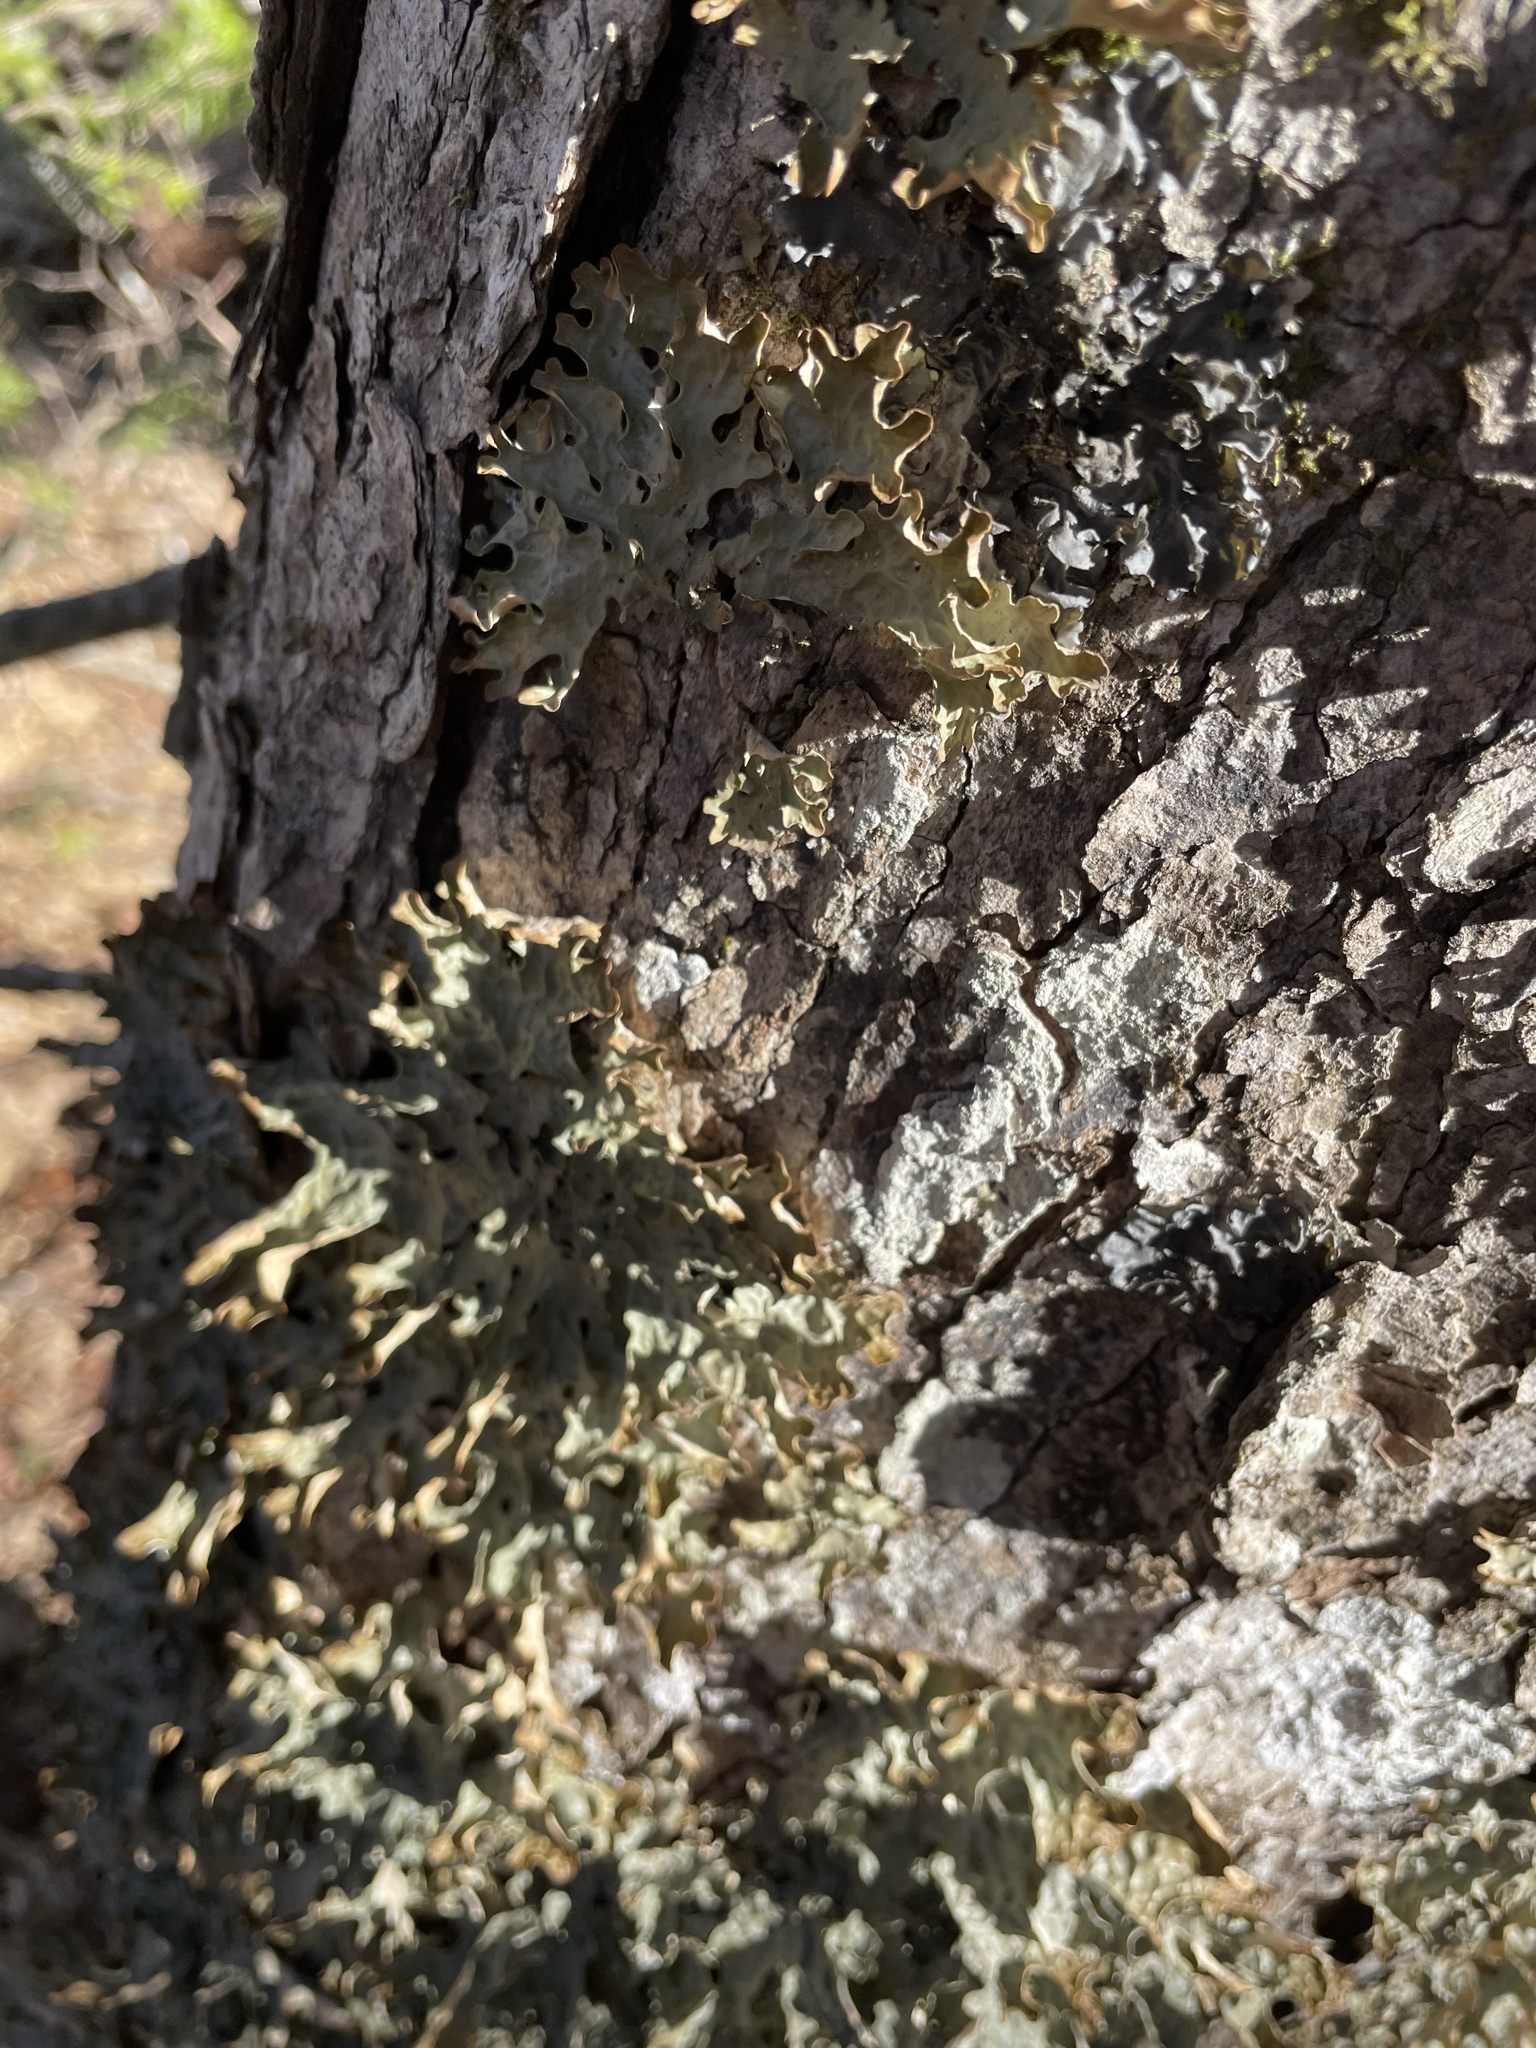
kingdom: Fungi
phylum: Ascomycota
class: Lecanoromycetes
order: Peltigerales
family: Lobariaceae
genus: Lobaria
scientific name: Lobaria pulmonaria
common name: Lungwort
